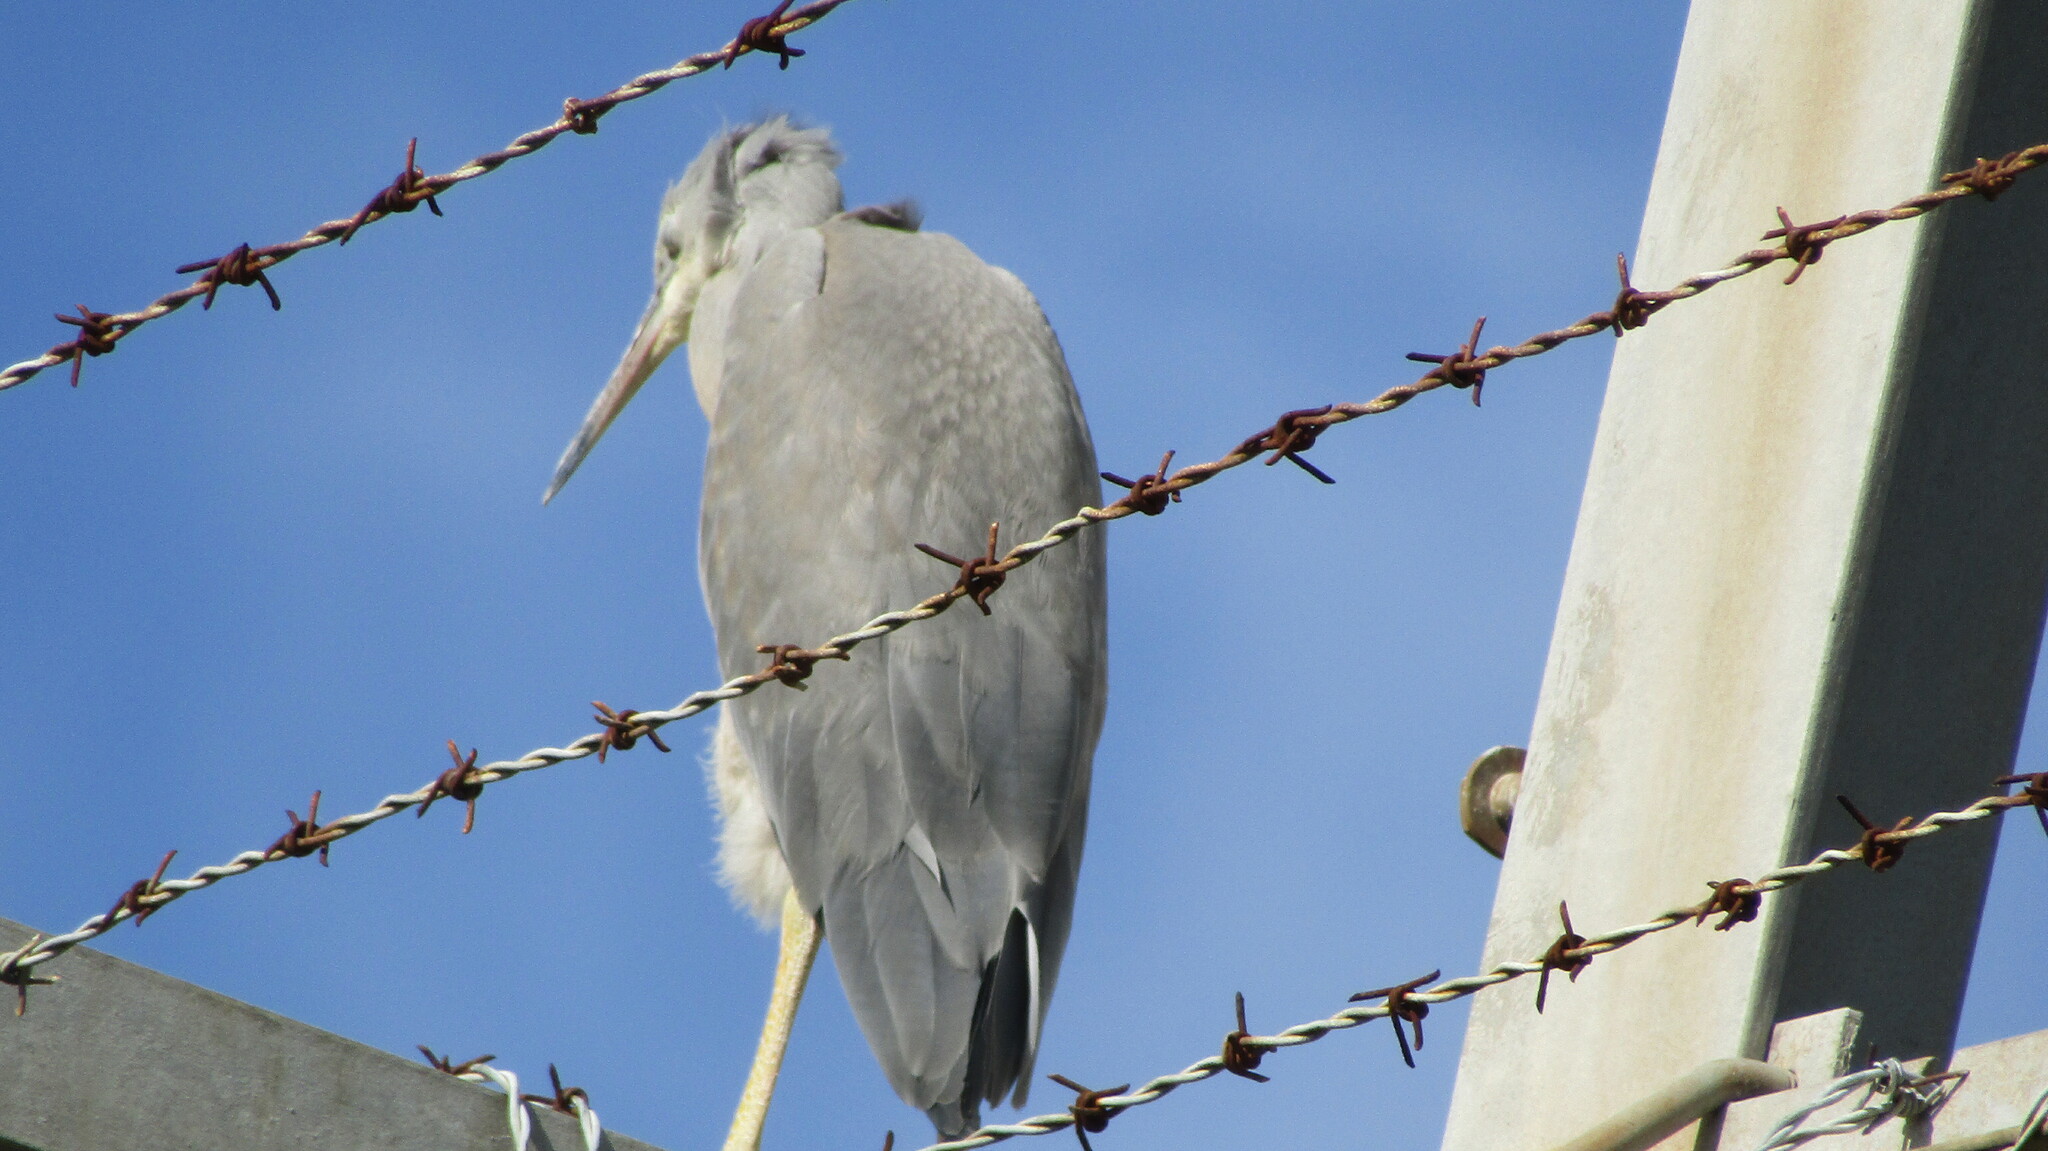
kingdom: Animalia
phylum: Chordata
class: Aves
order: Pelecaniformes
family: Ardeidae
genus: Egretta
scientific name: Egretta novaehollandiae
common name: White-faced heron
